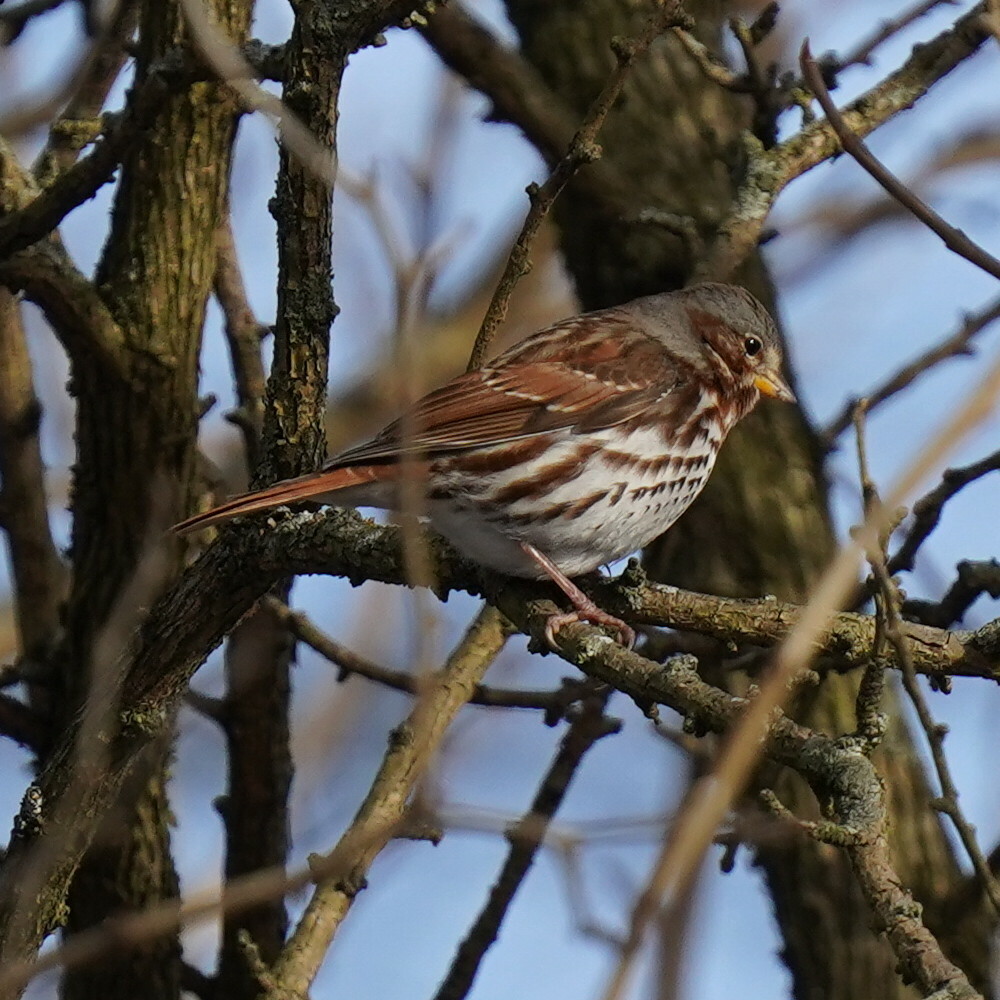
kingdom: Animalia
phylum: Chordata
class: Aves
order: Passeriformes
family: Passerellidae
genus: Passerella
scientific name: Passerella iliaca
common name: Fox sparrow
